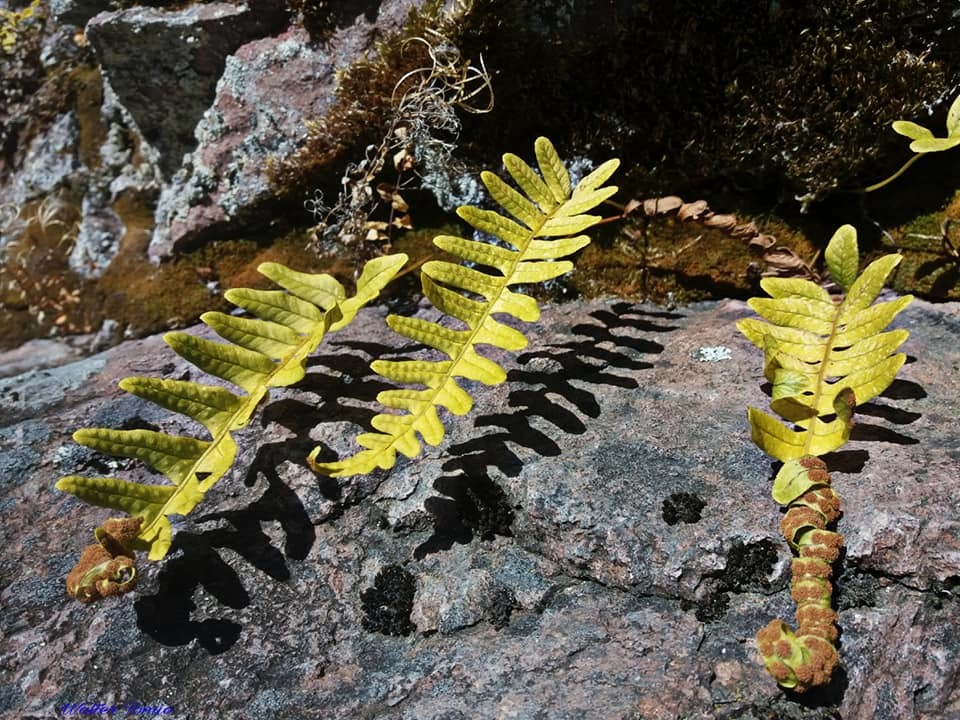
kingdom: Plantae
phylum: Tracheophyta
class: Polypodiopsida
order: Polypodiales
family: Polypodiaceae
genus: Polypodium
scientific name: Polypodium vulgare
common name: Common polypody
